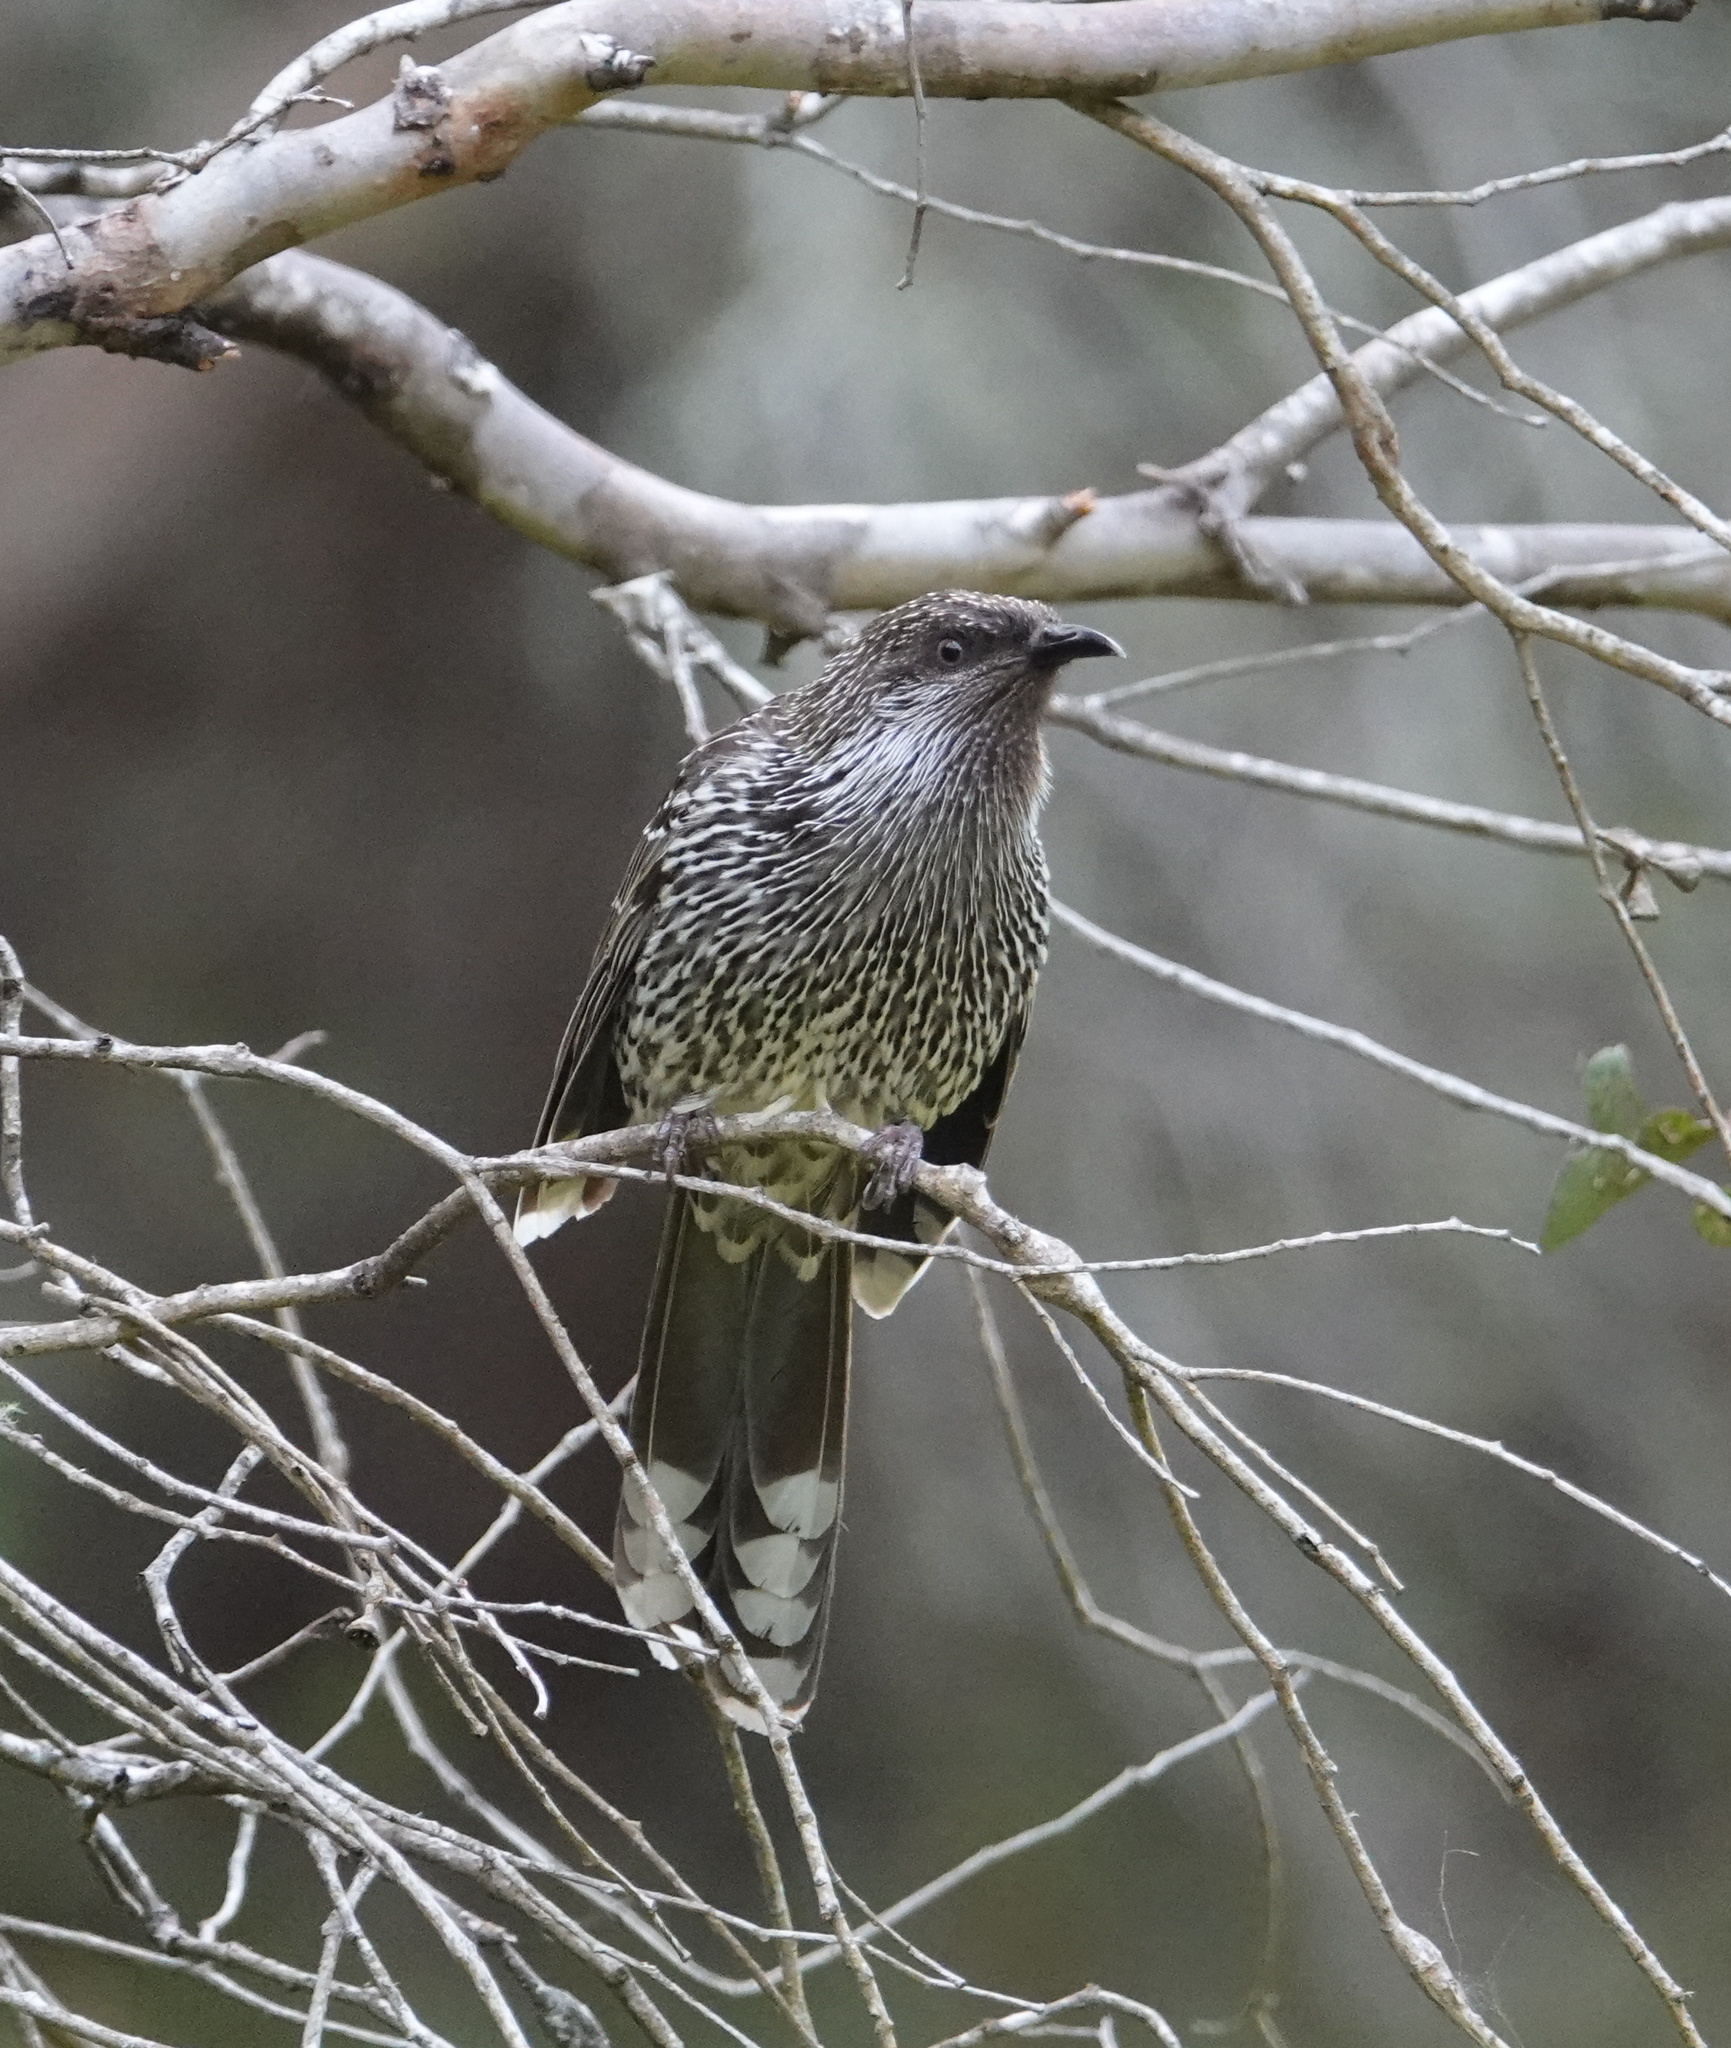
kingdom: Animalia
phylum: Chordata
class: Aves
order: Passeriformes
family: Meliphagidae
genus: Anthochaera
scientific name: Anthochaera chrysoptera
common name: Little wattlebird
